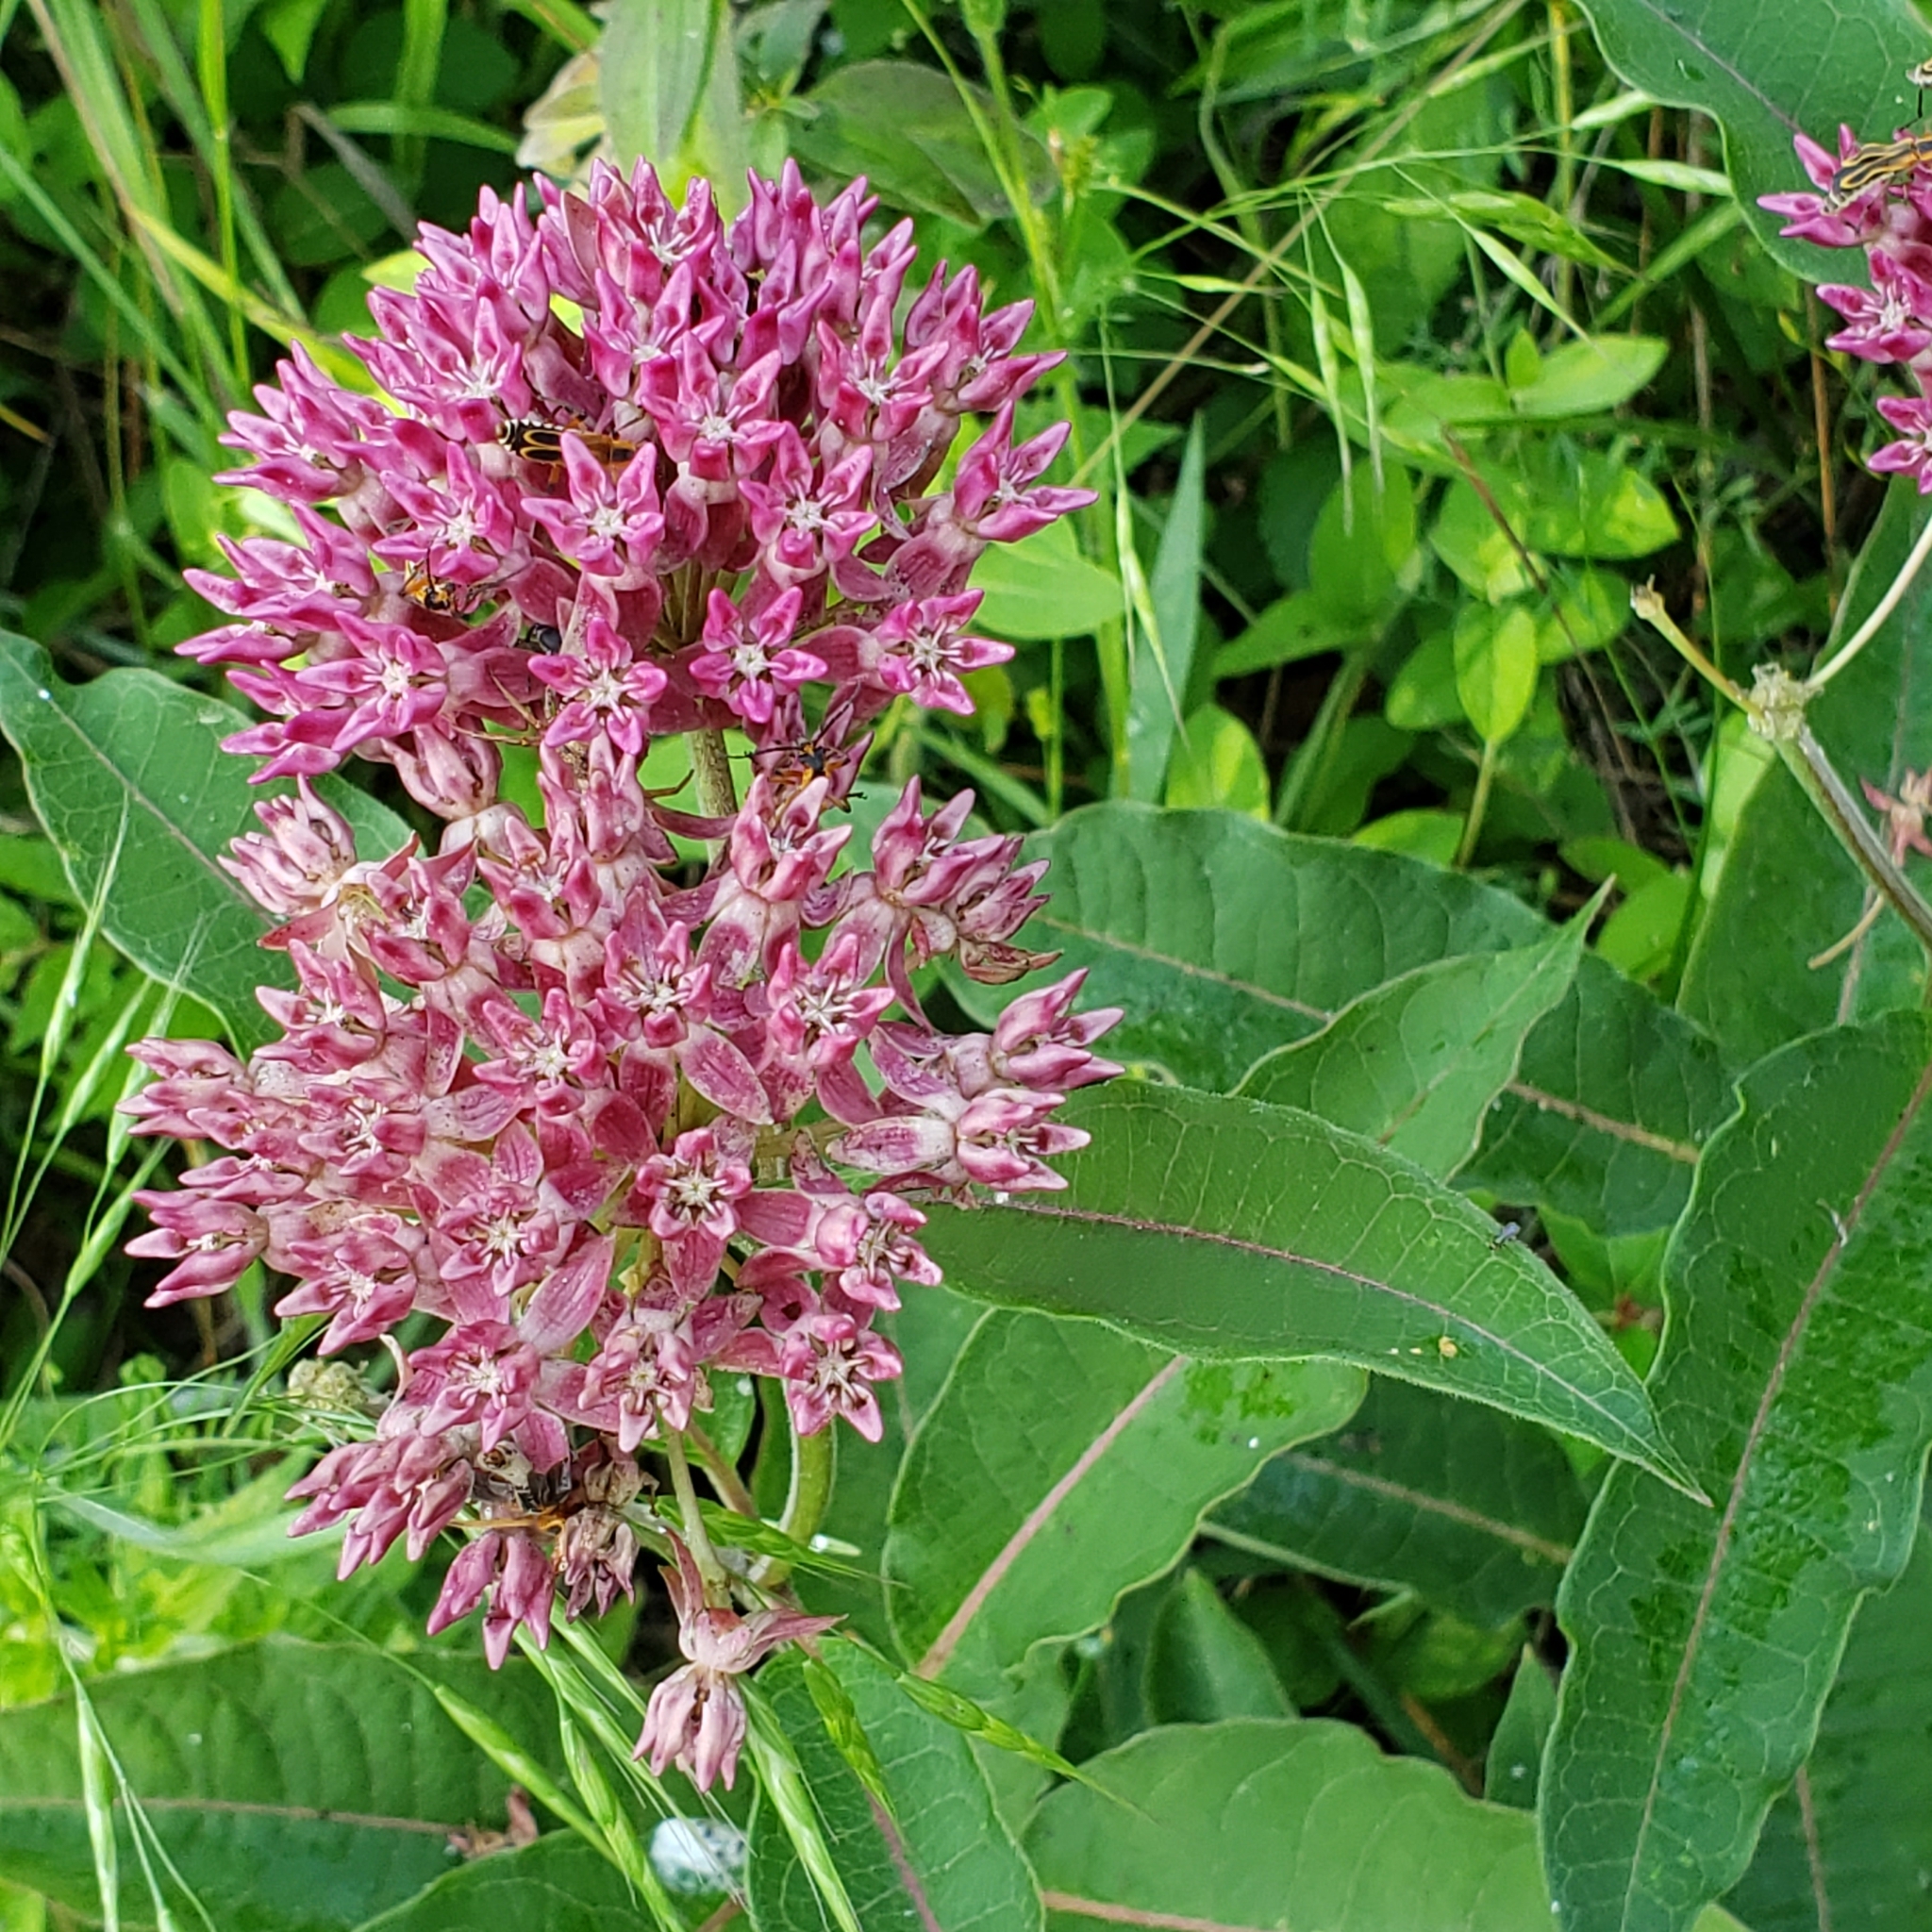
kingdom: Plantae
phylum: Tracheophyta
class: Magnoliopsida
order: Gentianales
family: Apocynaceae
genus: Asclepias
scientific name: Asclepias purpurascens
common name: Purple milkweed
